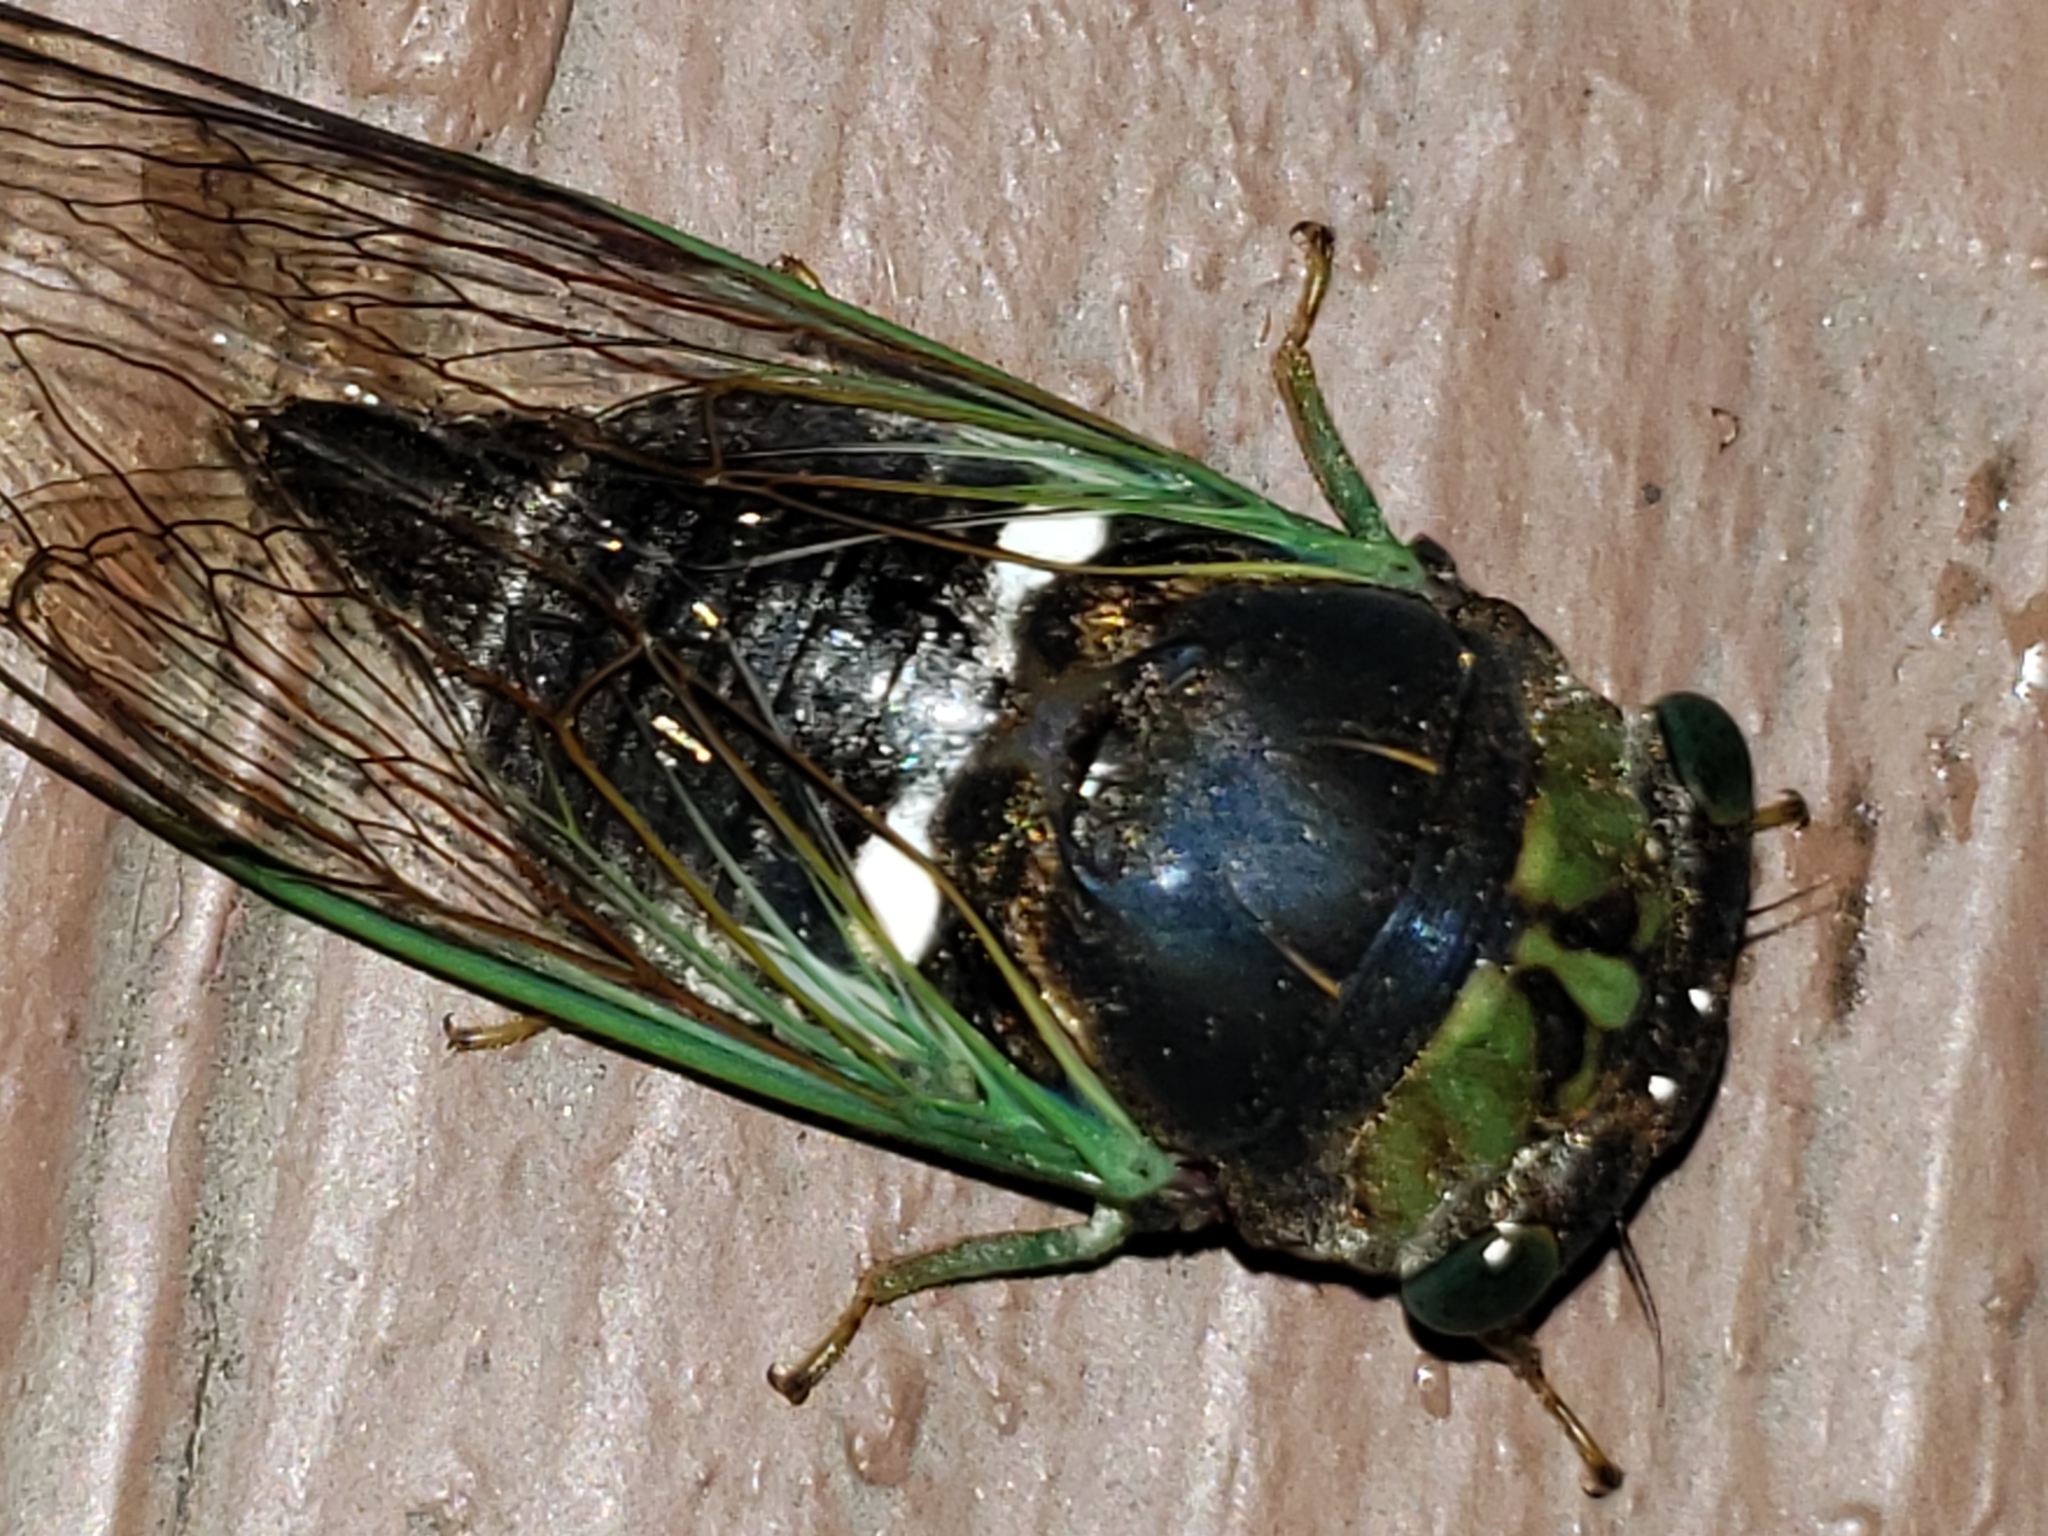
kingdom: Animalia
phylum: Arthropoda
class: Insecta
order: Hemiptera
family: Cicadidae
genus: Neotibicen
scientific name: Neotibicen tibicen
